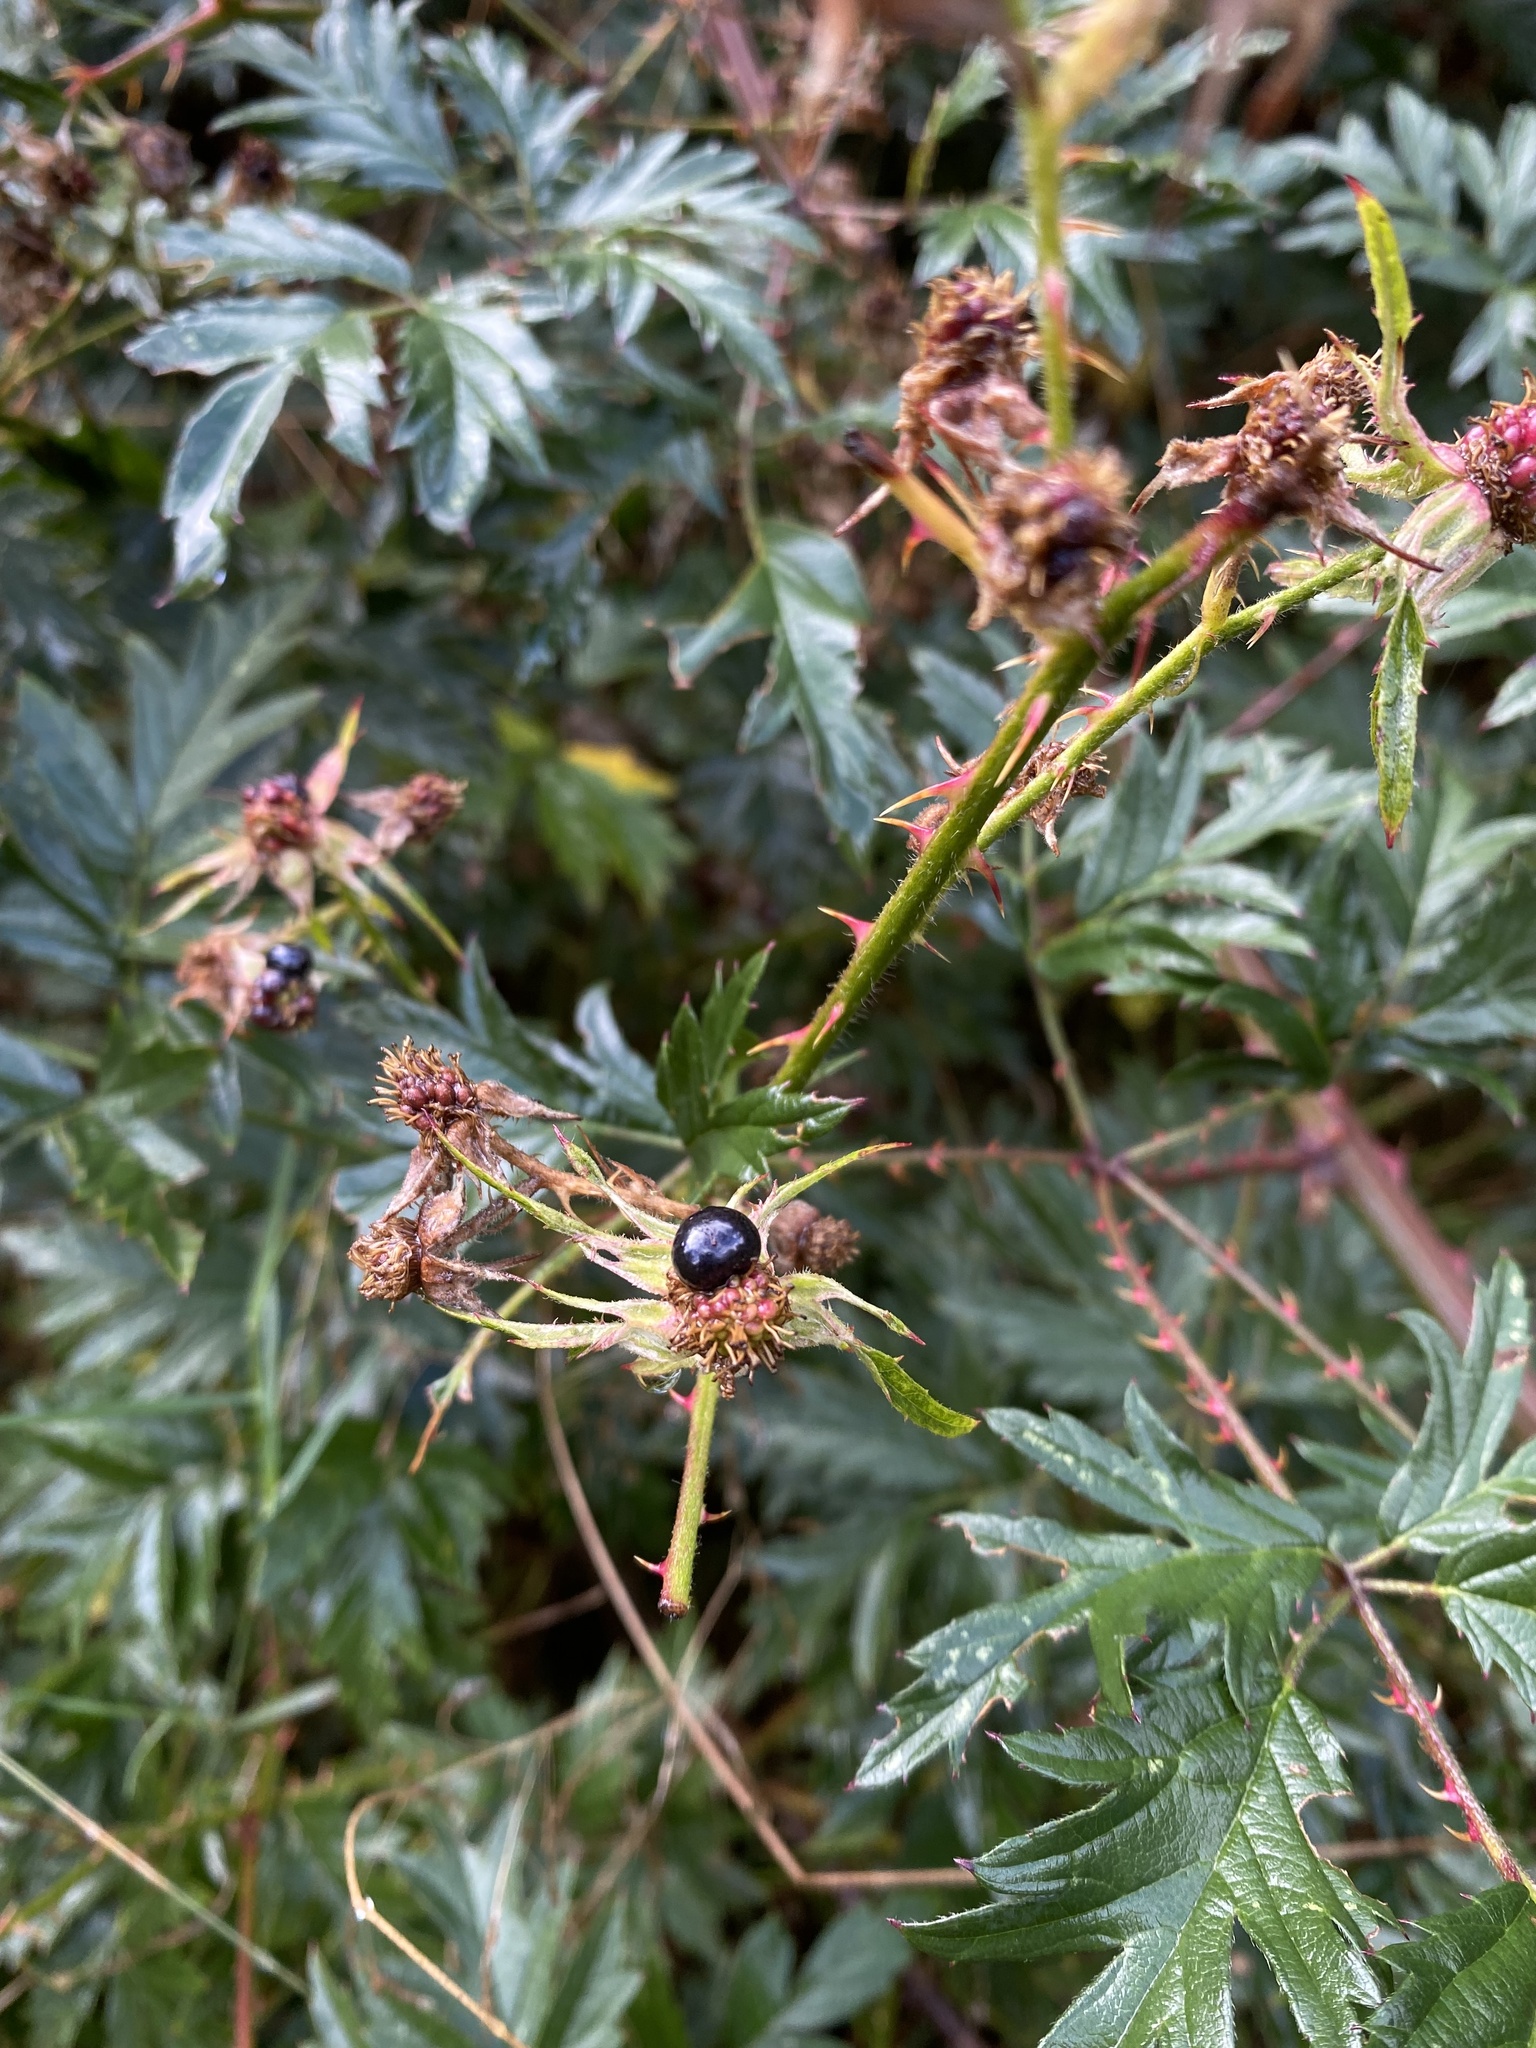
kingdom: Plantae
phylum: Tracheophyta
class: Magnoliopsida
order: Rosales
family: Rosaceae
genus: Rubus
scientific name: Rubus laciniatus
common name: Evergreen blackberry
